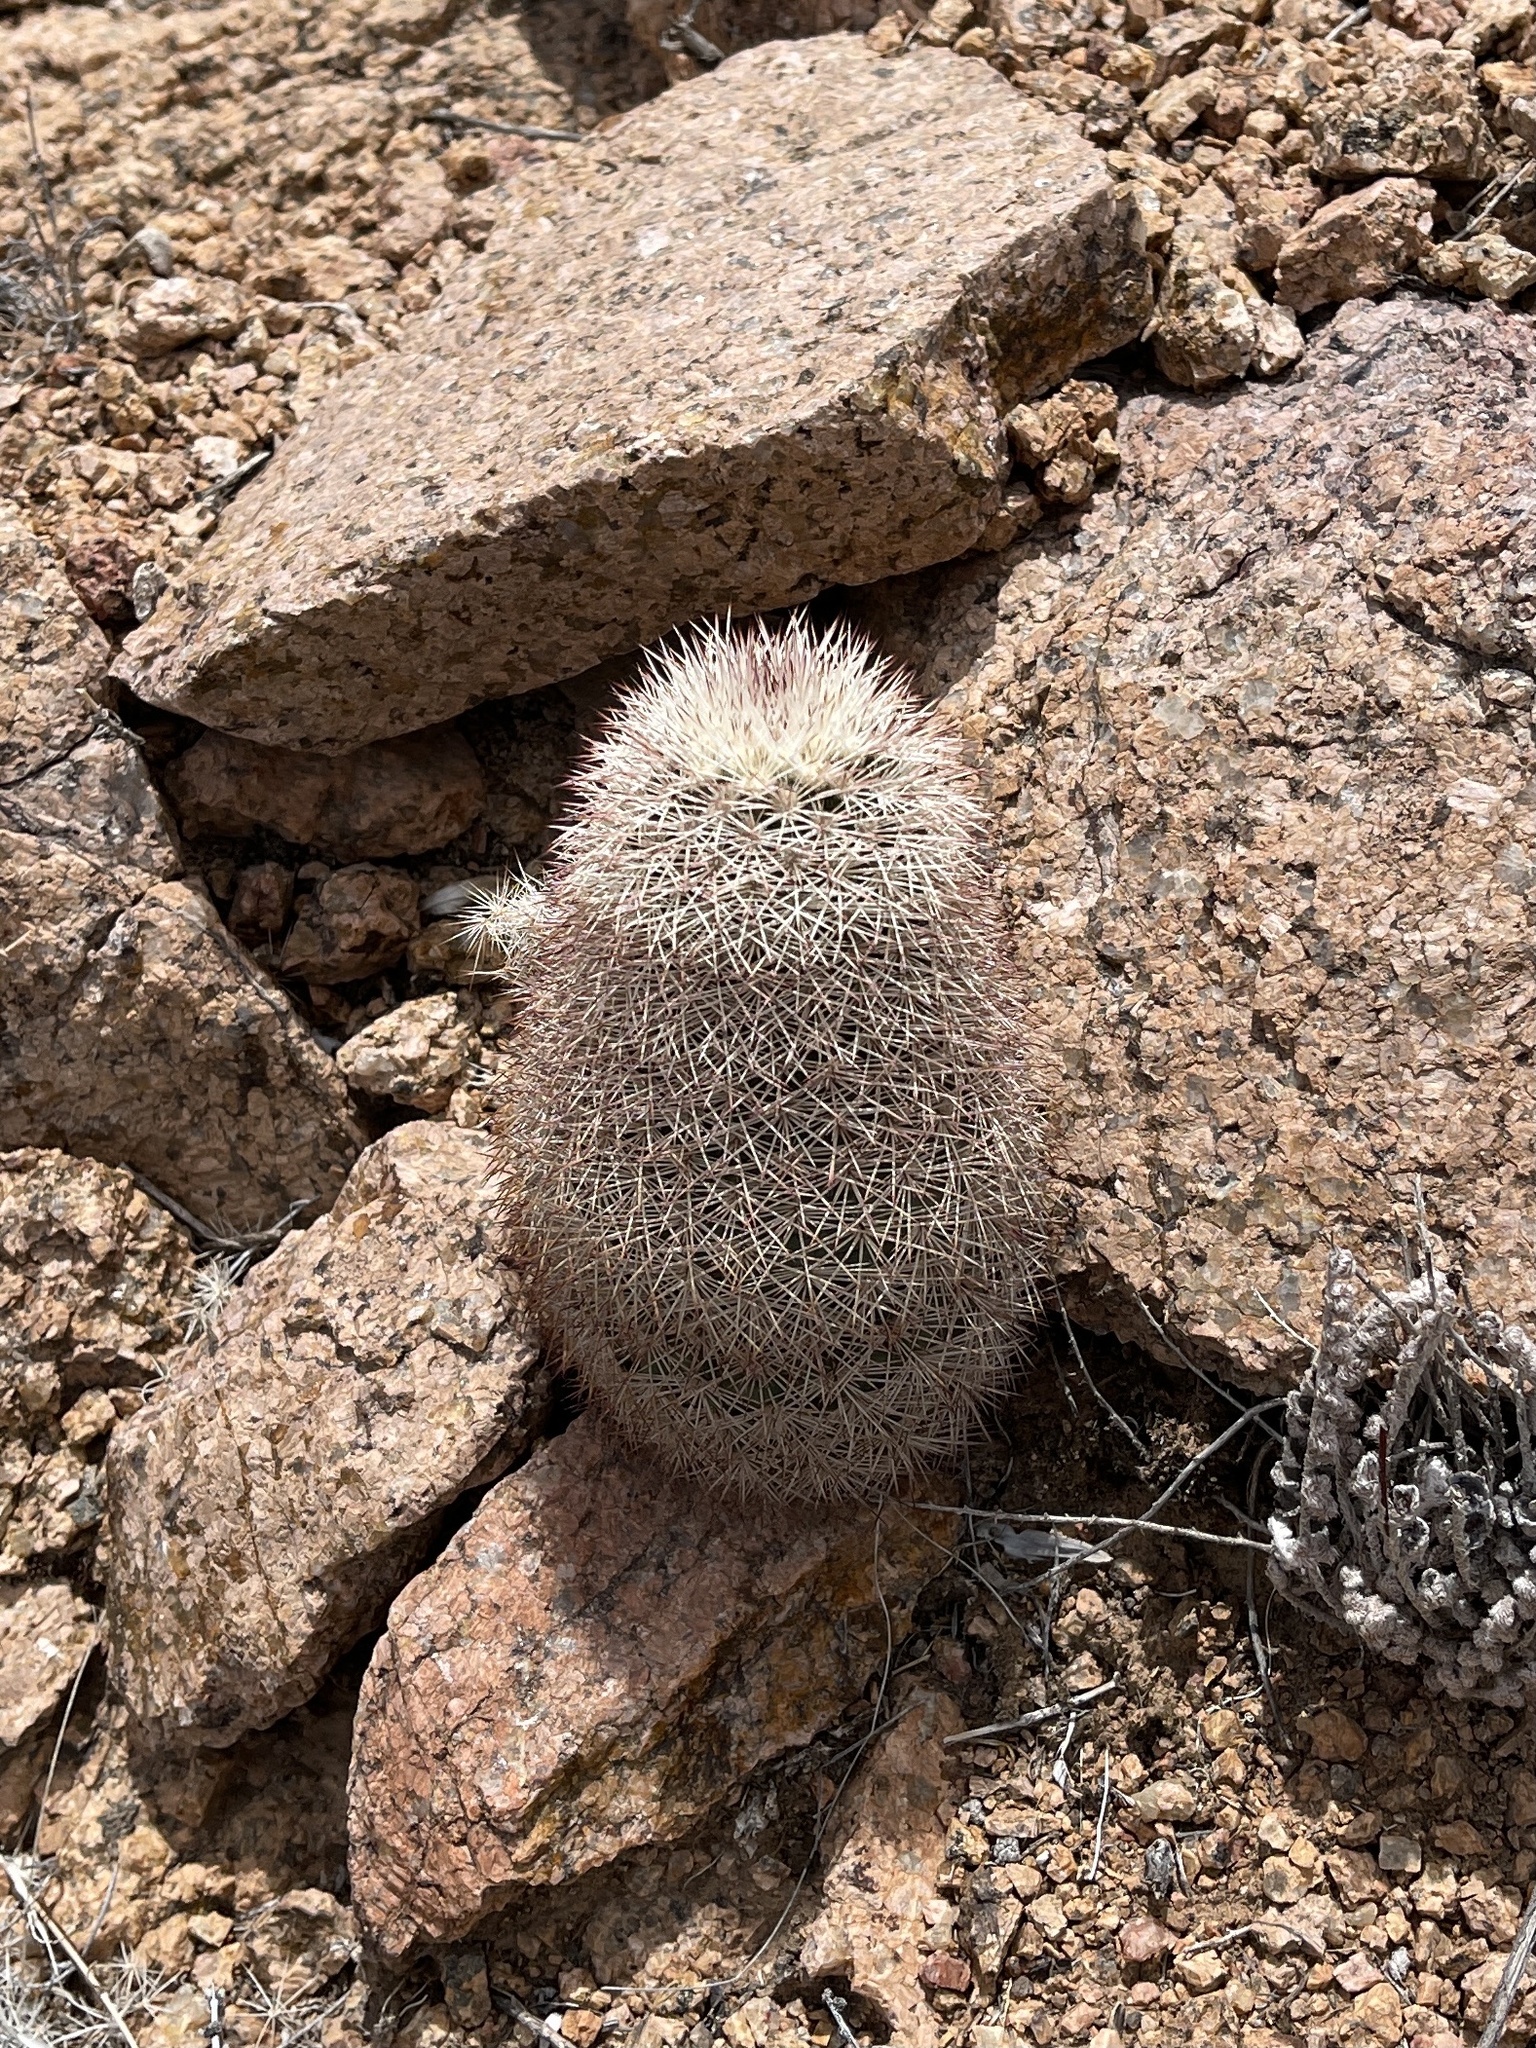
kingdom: Plantae
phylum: Tracheophyta
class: Magnoliopsida
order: Caryophyllales
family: Cactaceae
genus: Echinocereus
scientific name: Echinocereus dasyacanthus
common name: Spiny hedgehog cactus
